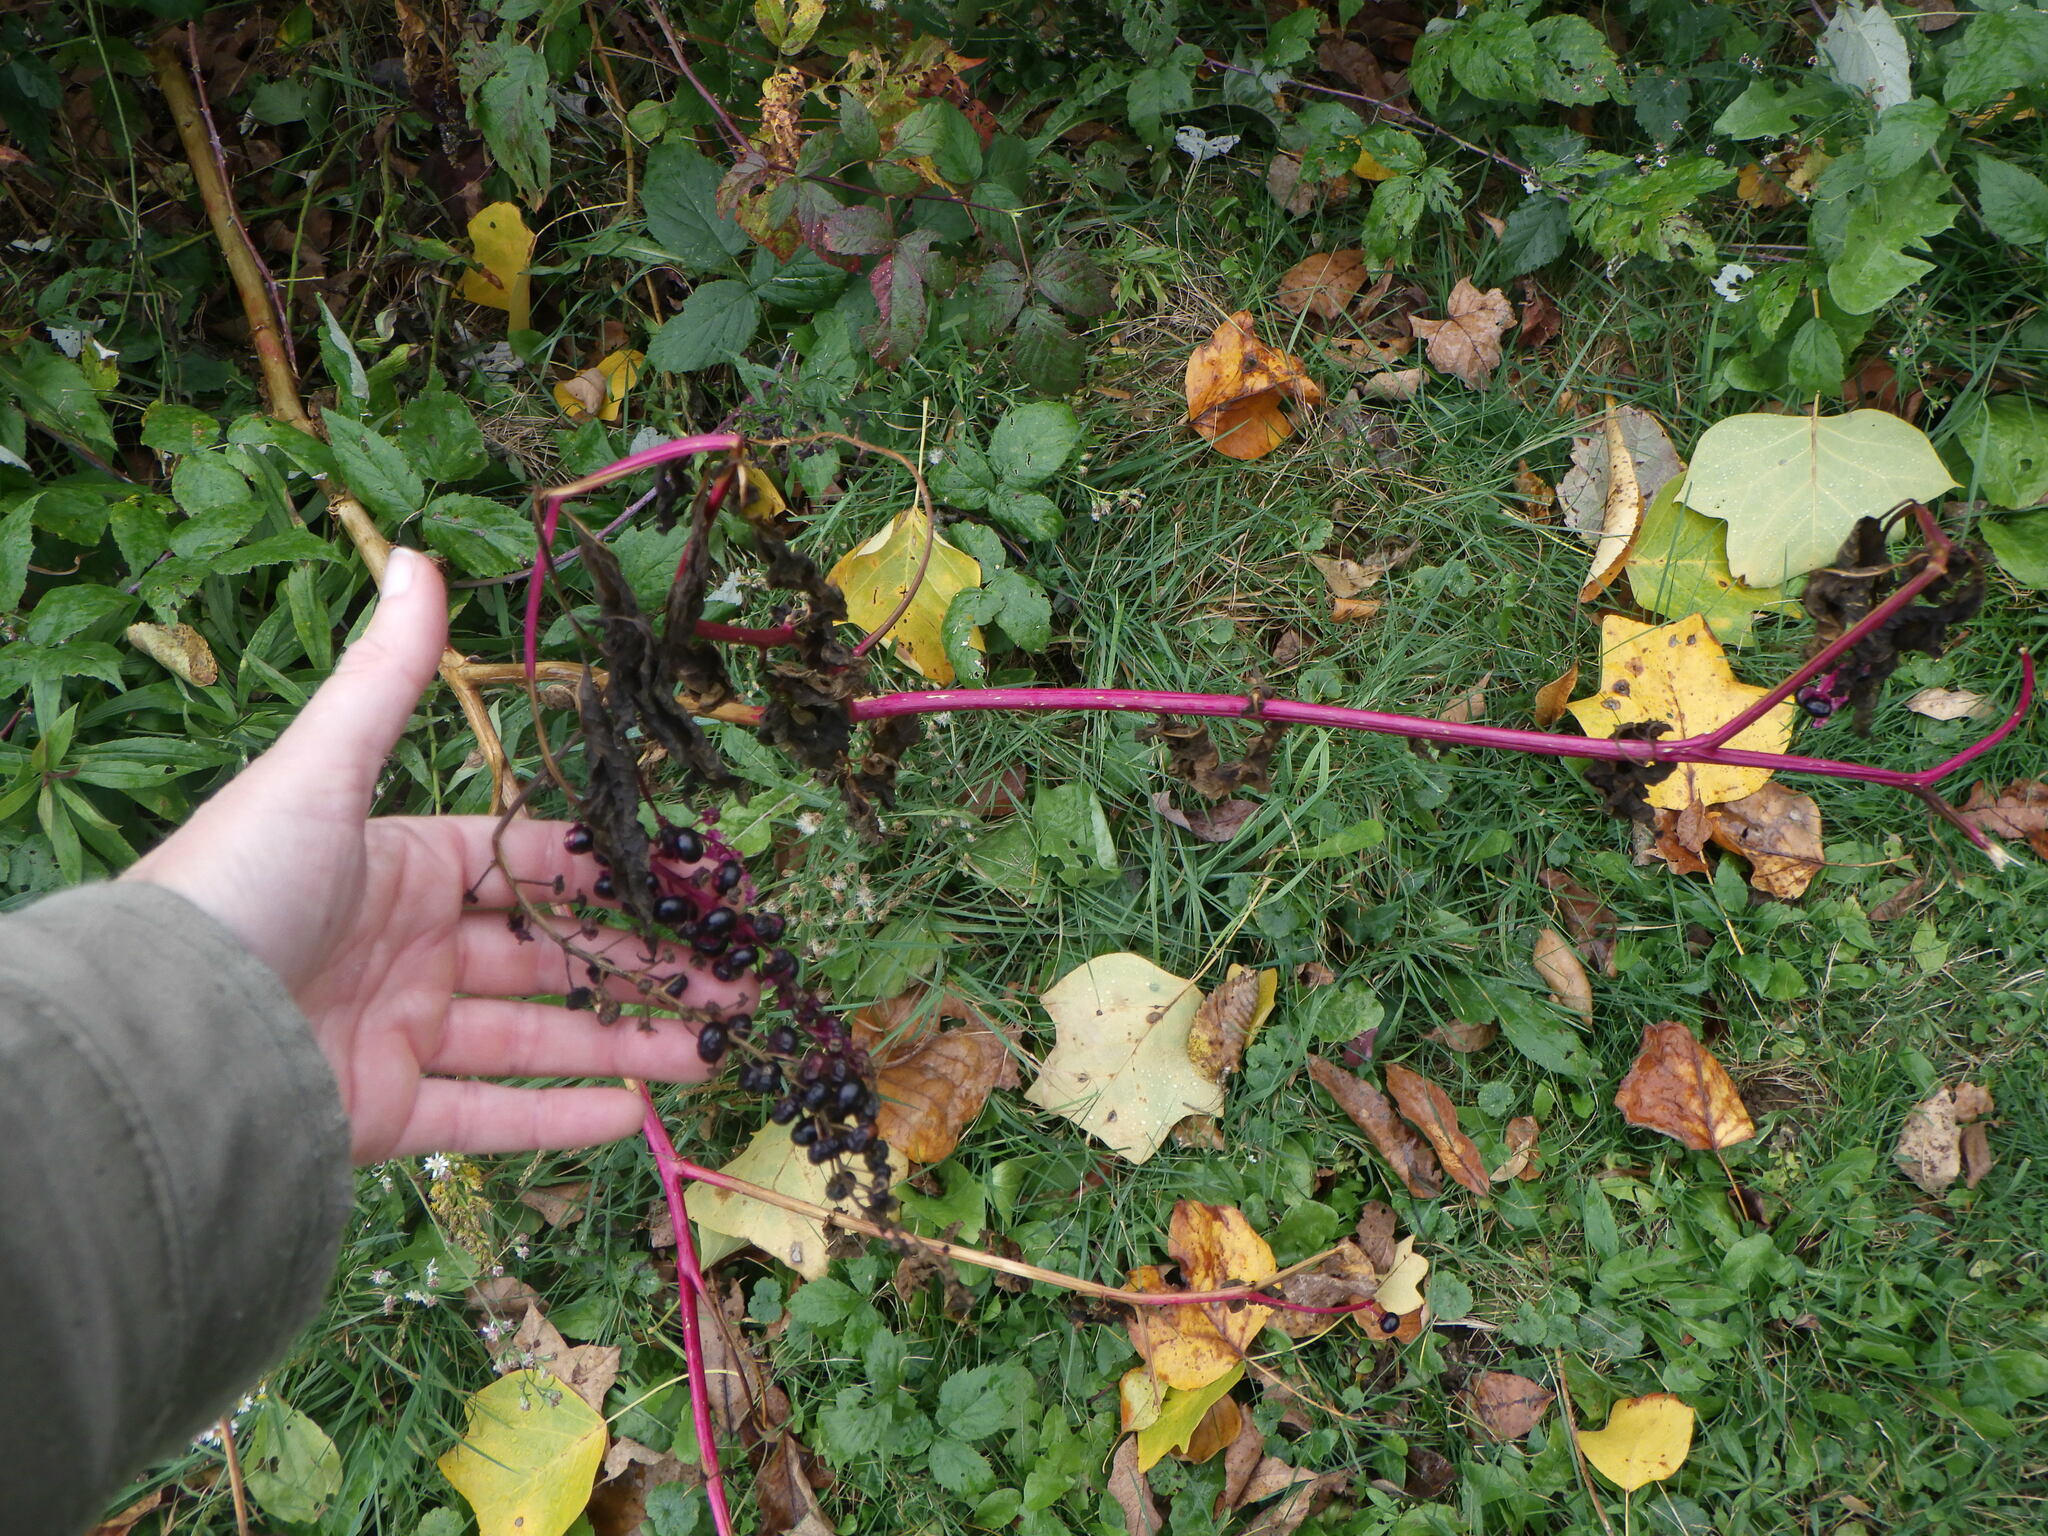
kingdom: Plantae
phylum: Tracheophyta
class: Magnoliopsida
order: Caryophyllales
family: Phytolaccaceae
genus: Phytolacca
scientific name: Phytolacca americana
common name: American pokeweed
